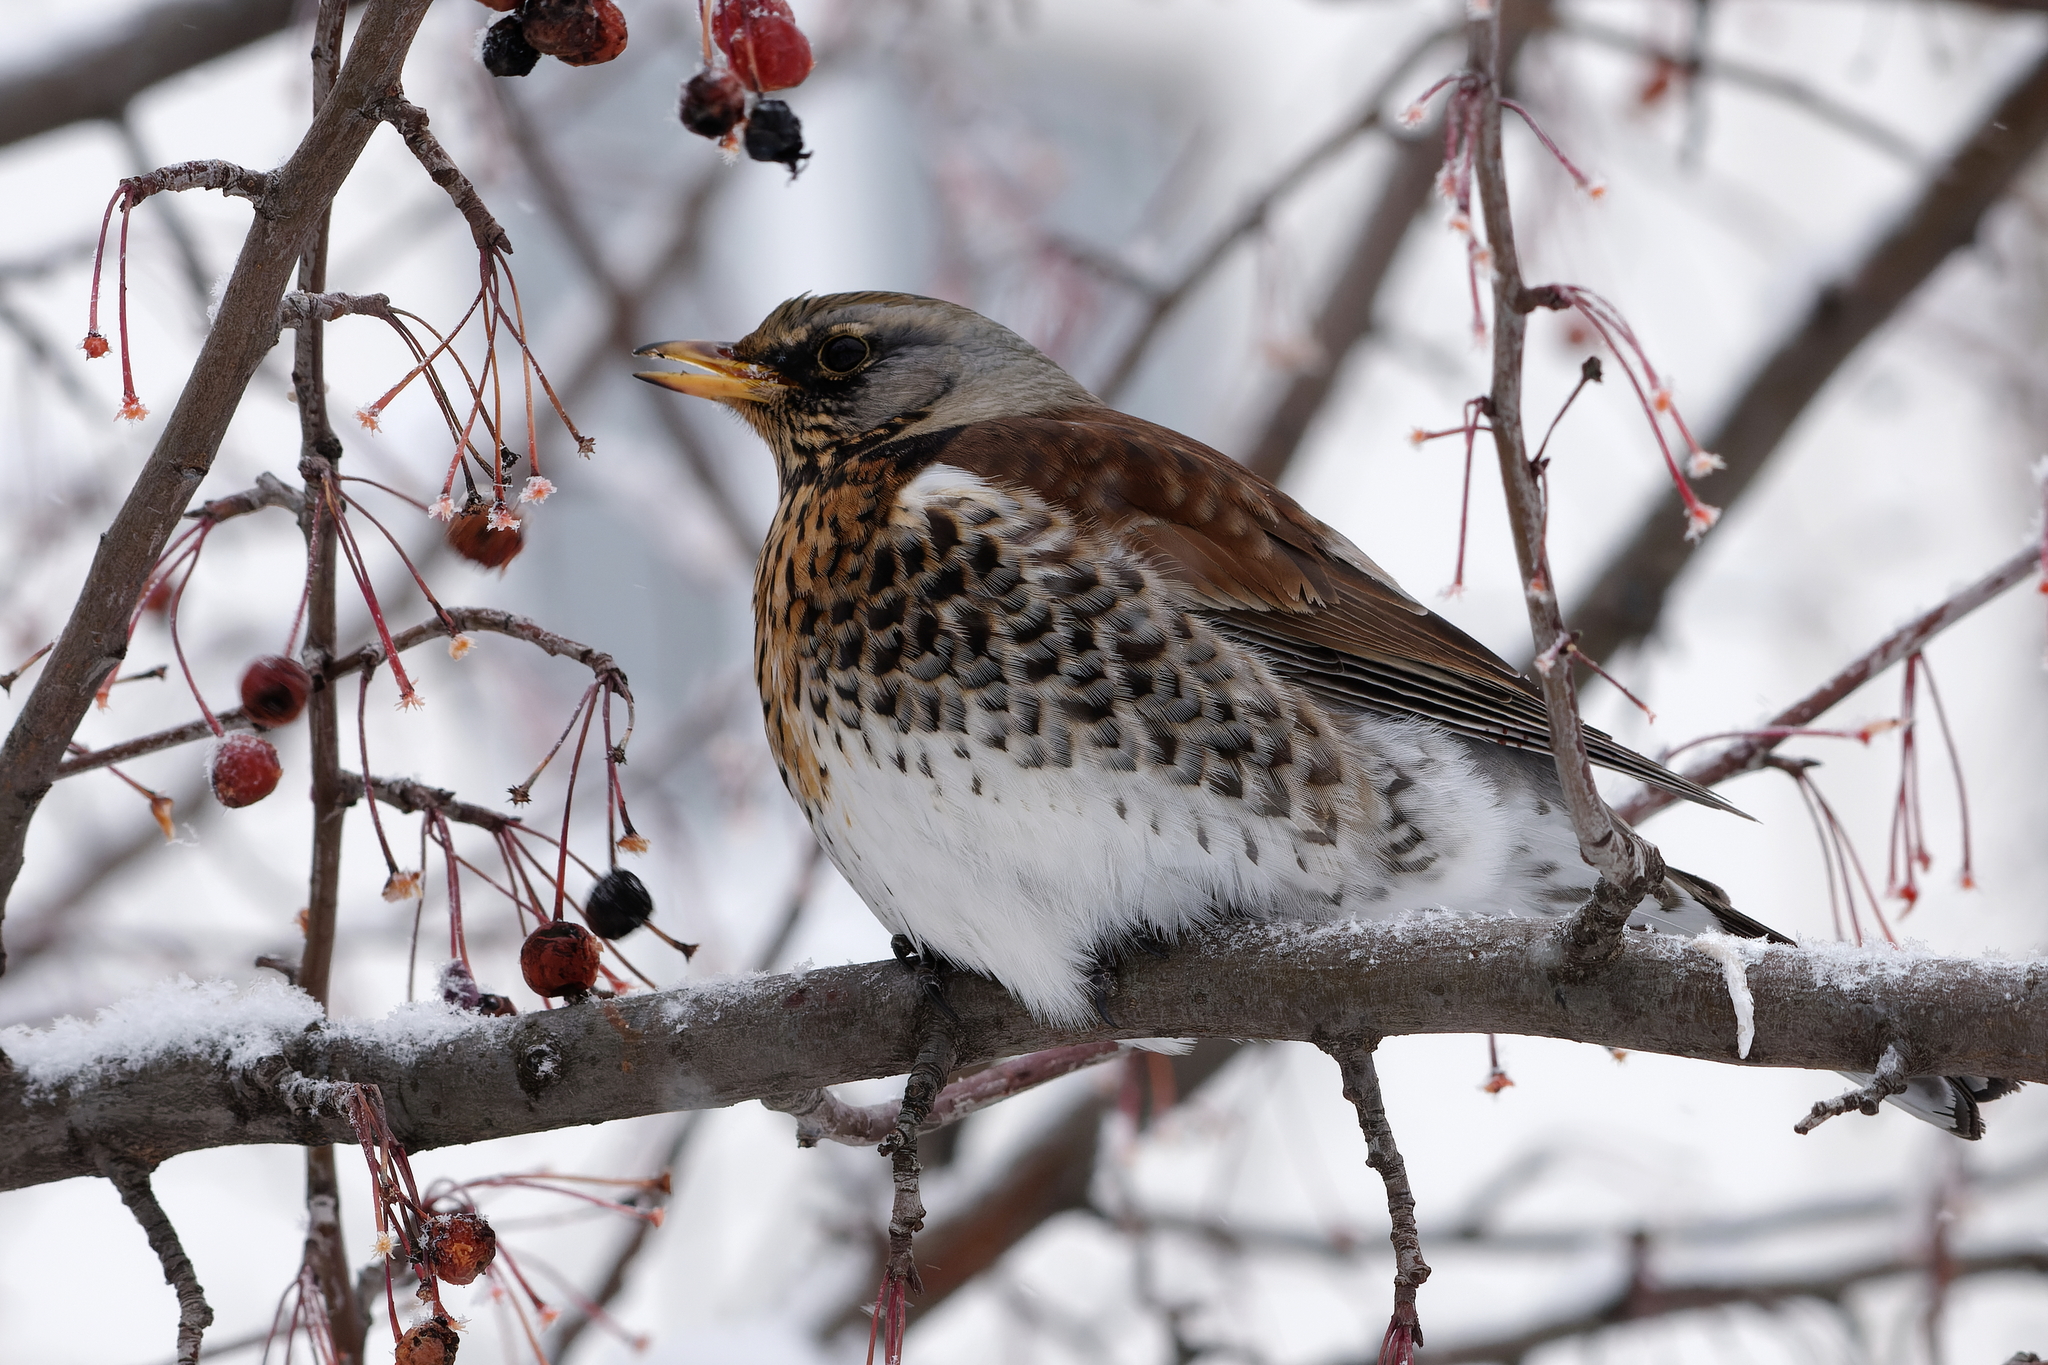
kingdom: Animalia
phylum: Chordata
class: Aves
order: Passeriformes
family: Turdidae
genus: Turdus
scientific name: Turdus pilaris
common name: Fieldfare
